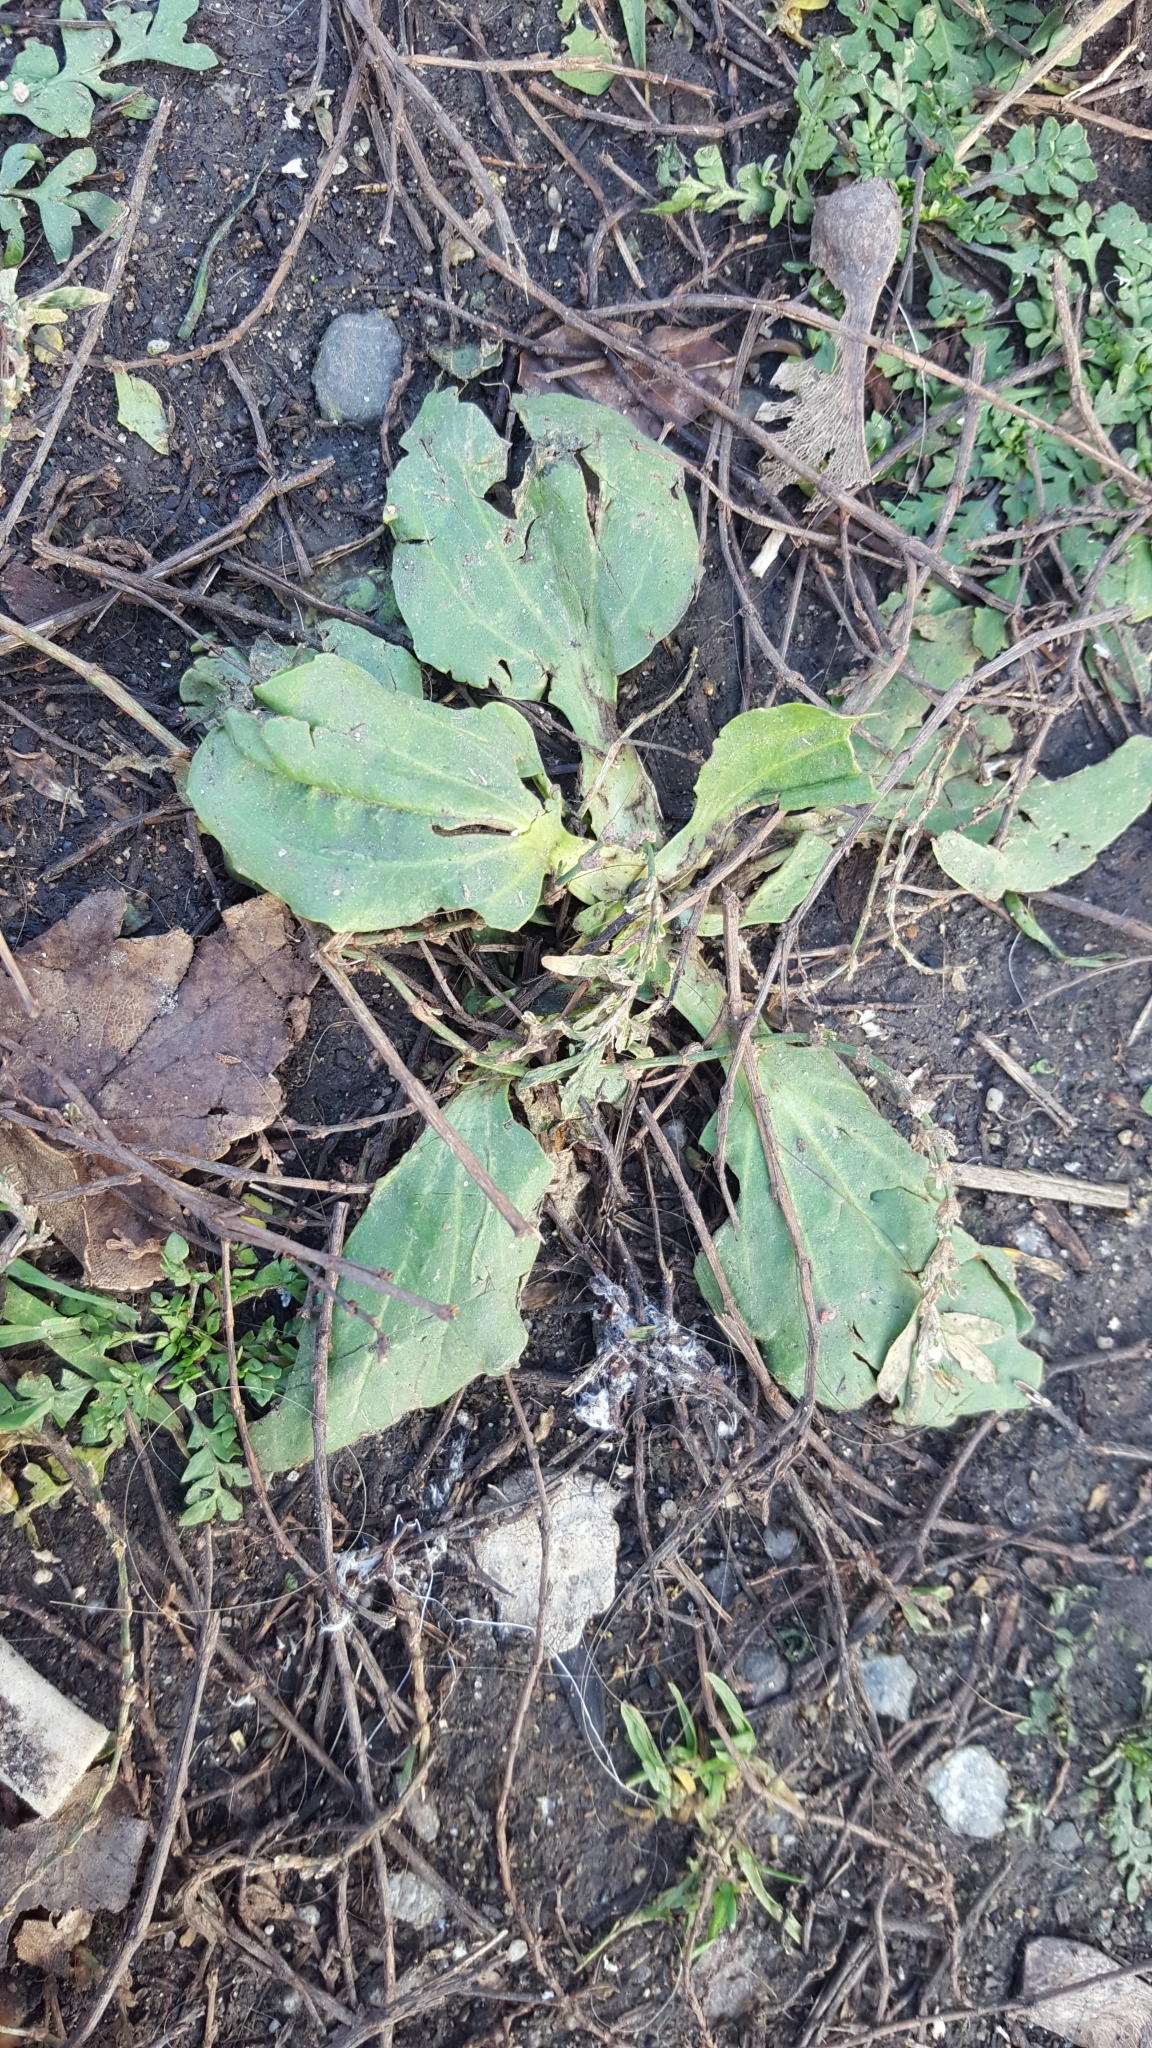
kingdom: Plantae
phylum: Tracheophyta
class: Magnoliopsida
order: Lamiales
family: Plantaginaceae
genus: Plantago
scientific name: Plantago major
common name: Common plantain
